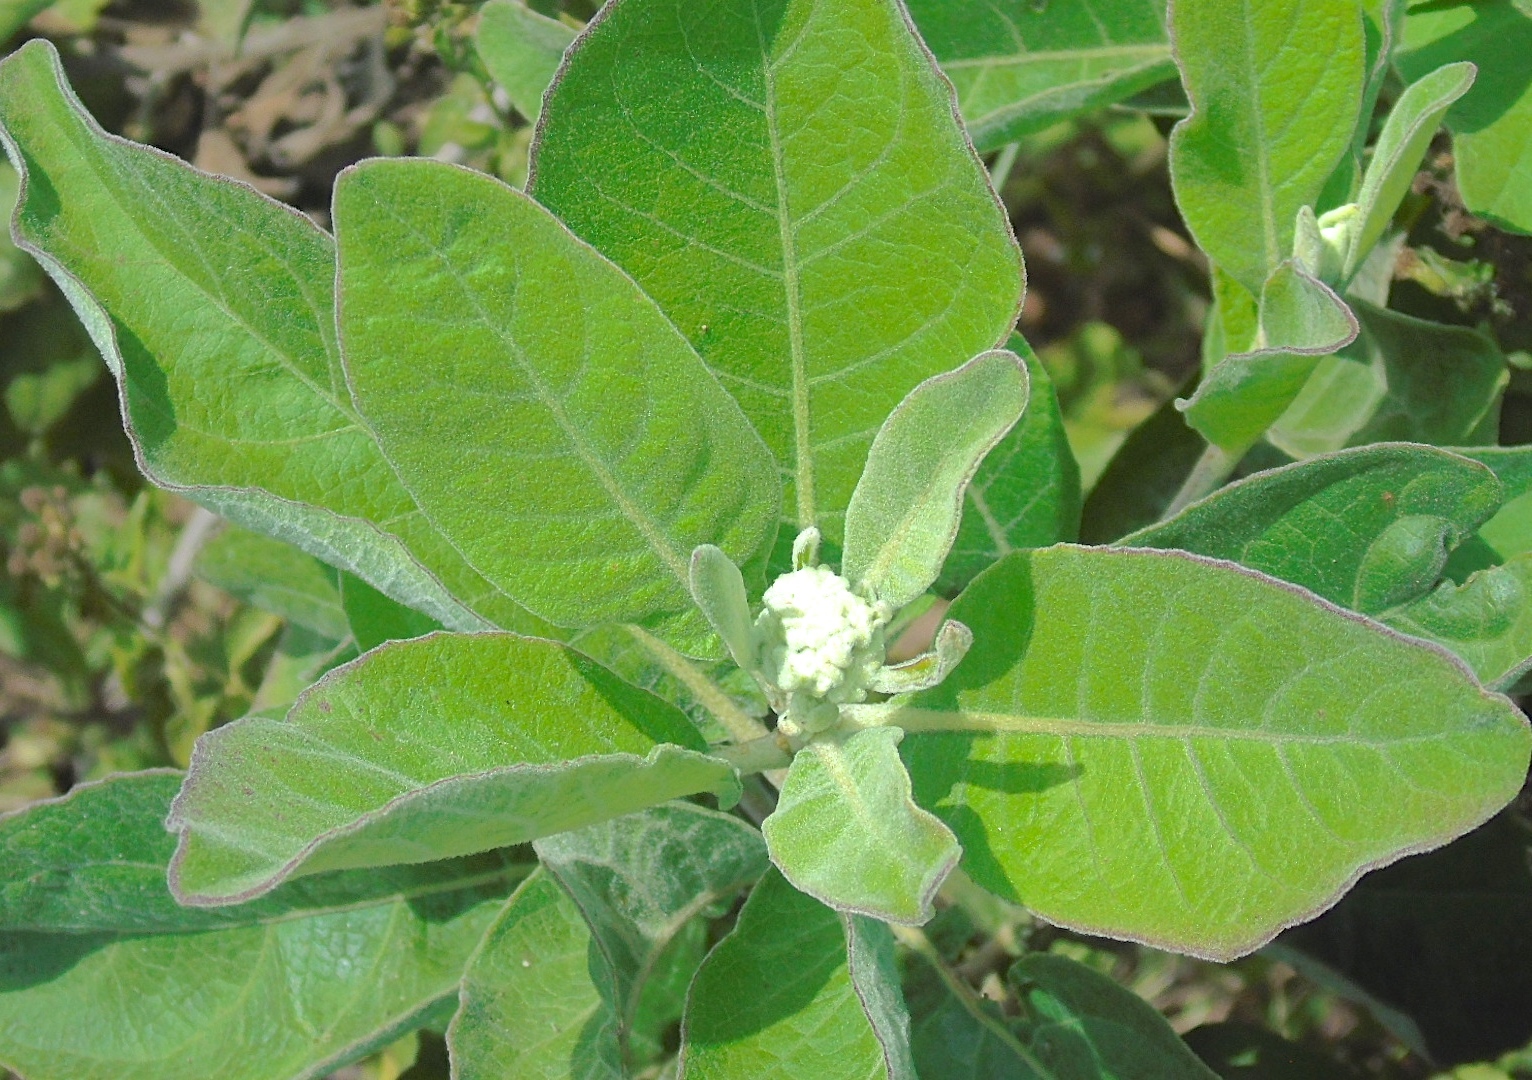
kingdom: Plantae
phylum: Tracheophyta
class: Magnoliopsida
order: Asterales
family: Asteraceae
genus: Pluchea
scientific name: Pluchea carolinensis
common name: Marsh fleabane
